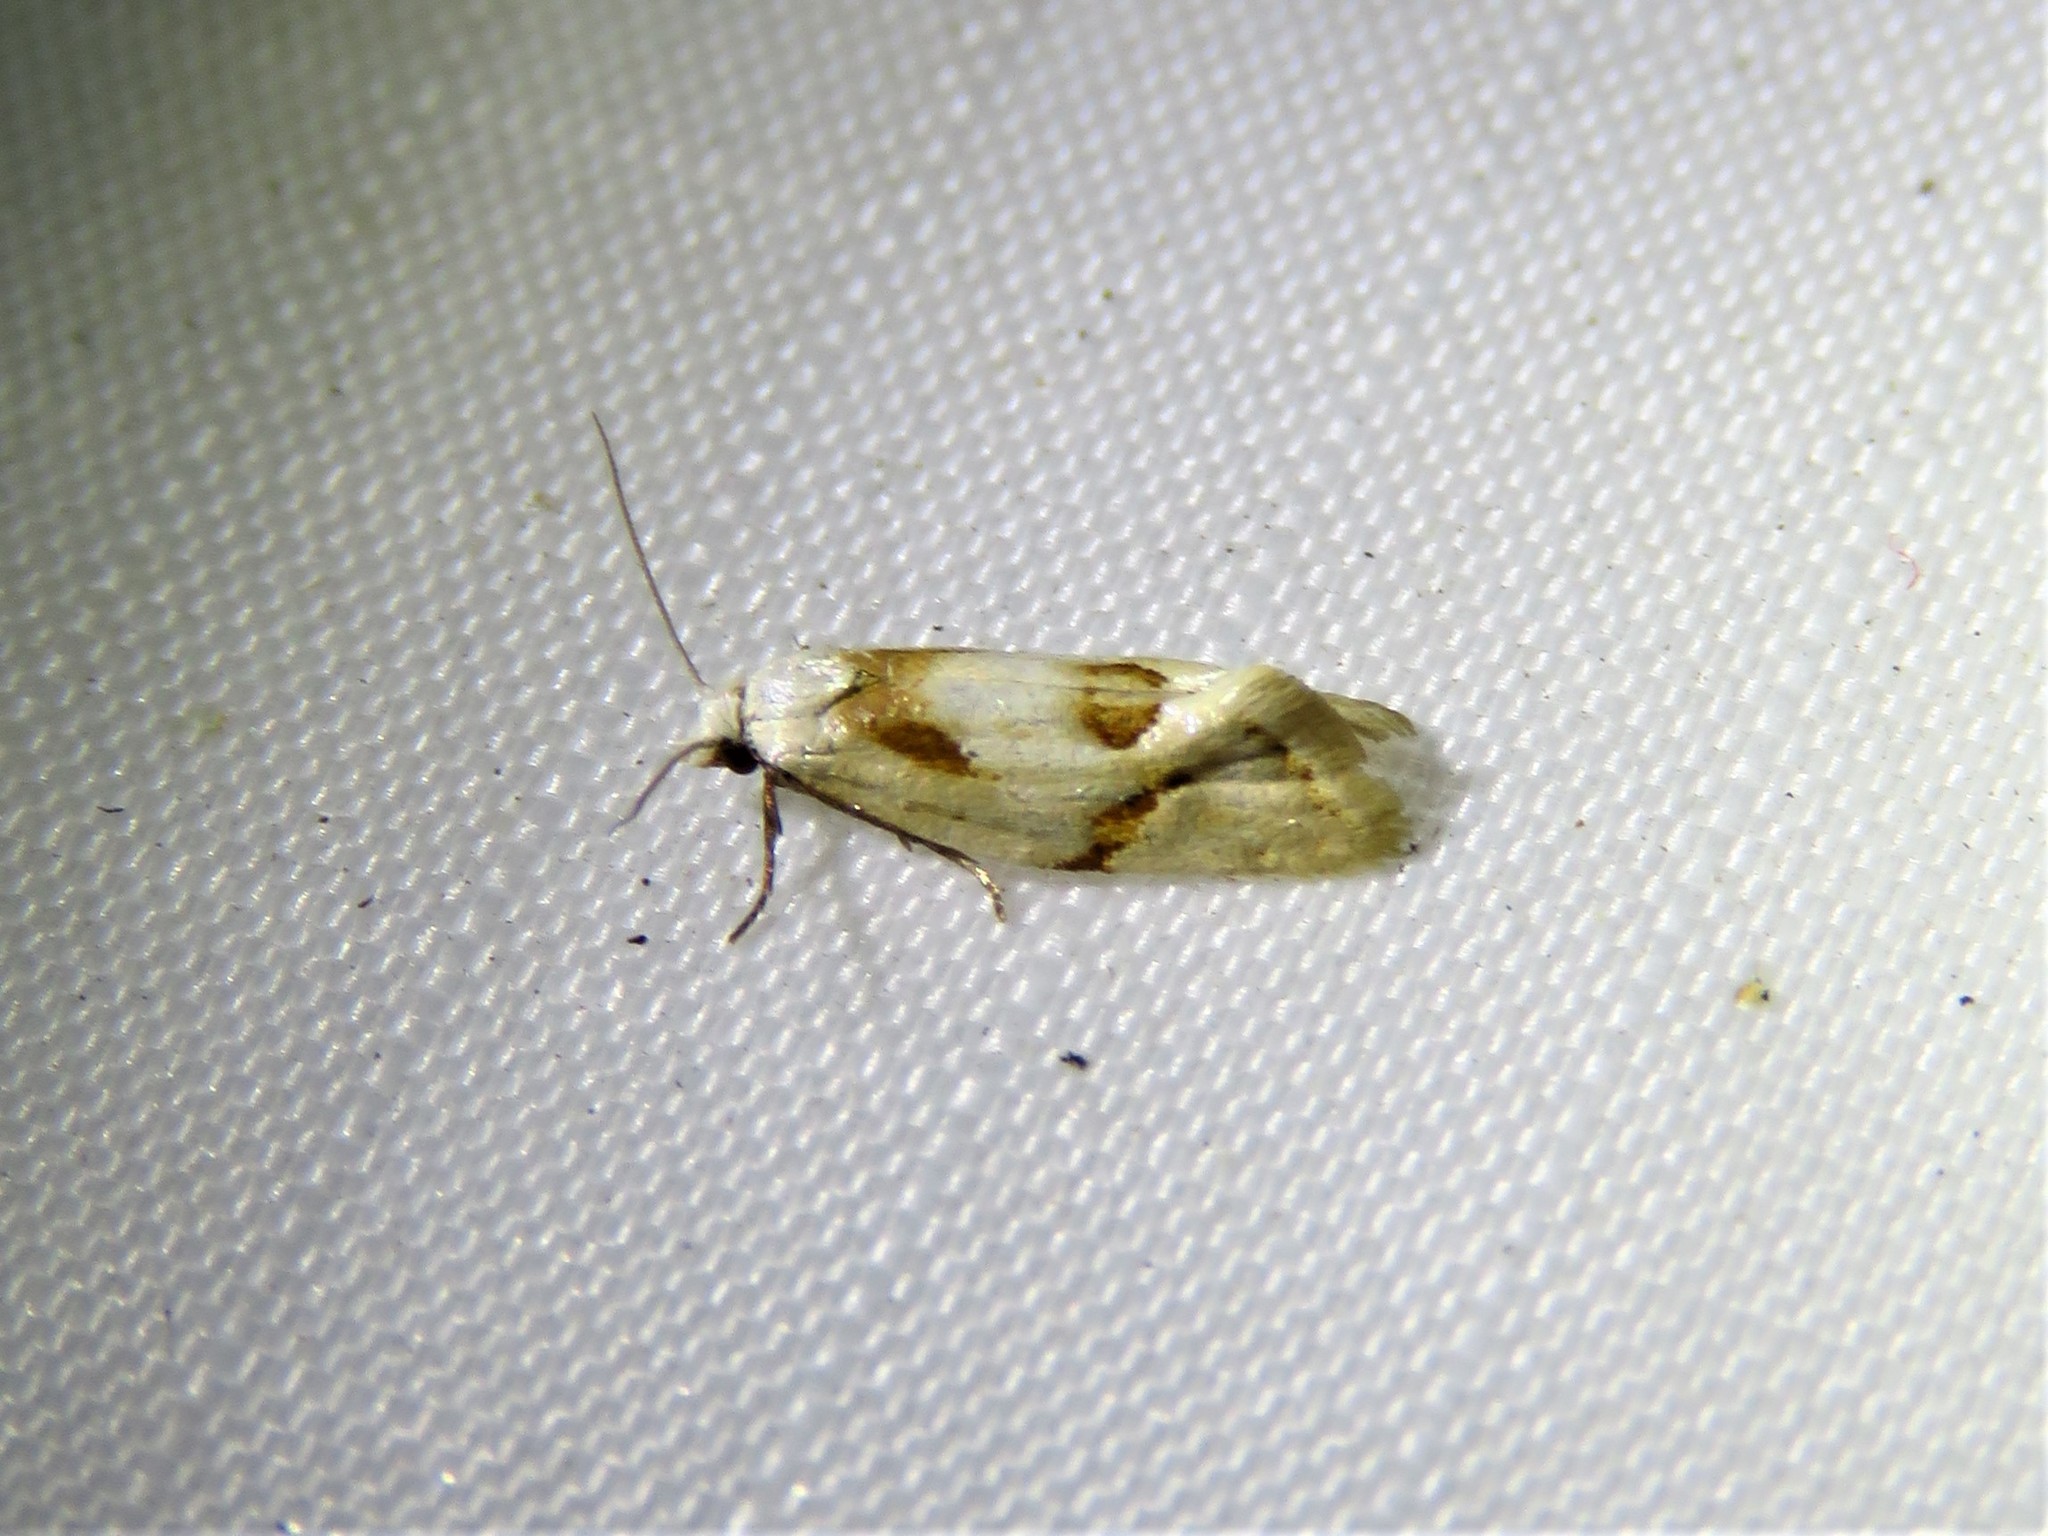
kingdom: Animalia
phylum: Arthropoda
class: Insecta
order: Lepidoptera
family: Tortricidae
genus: Aethes
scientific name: Aethes seriatana
